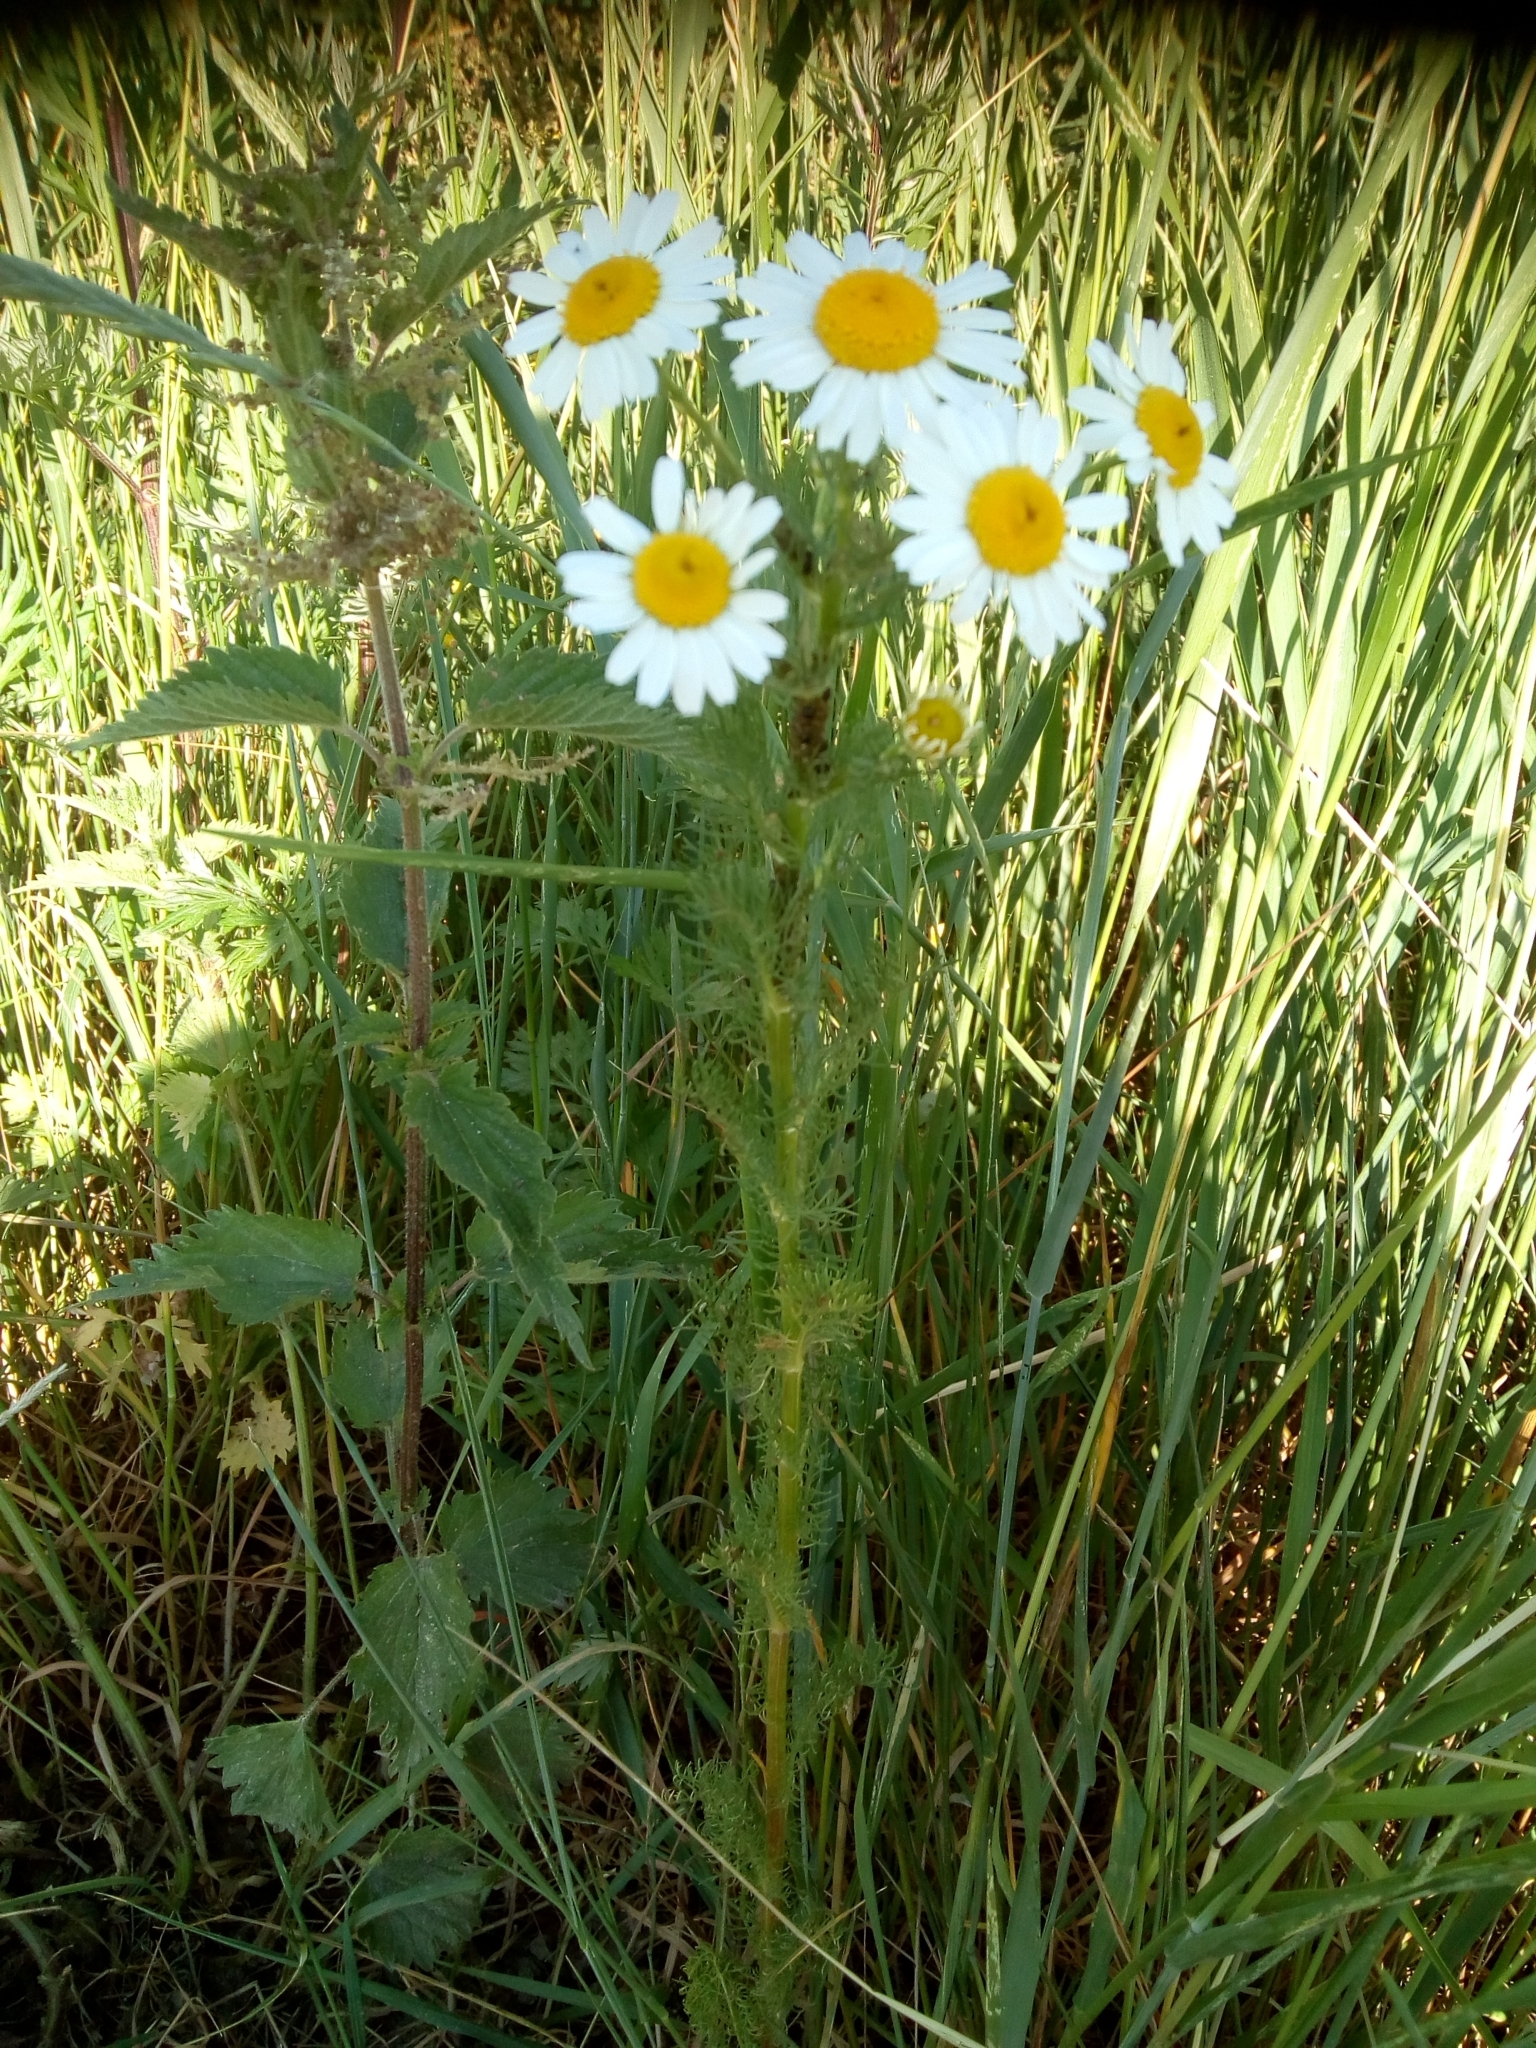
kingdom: Plantae
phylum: Tracheophyta
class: Magnoliopsida
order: Asterales
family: Asteraceae
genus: Tripleurospermum
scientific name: Tripleurospermum inodorum
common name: Scentless mayweed
